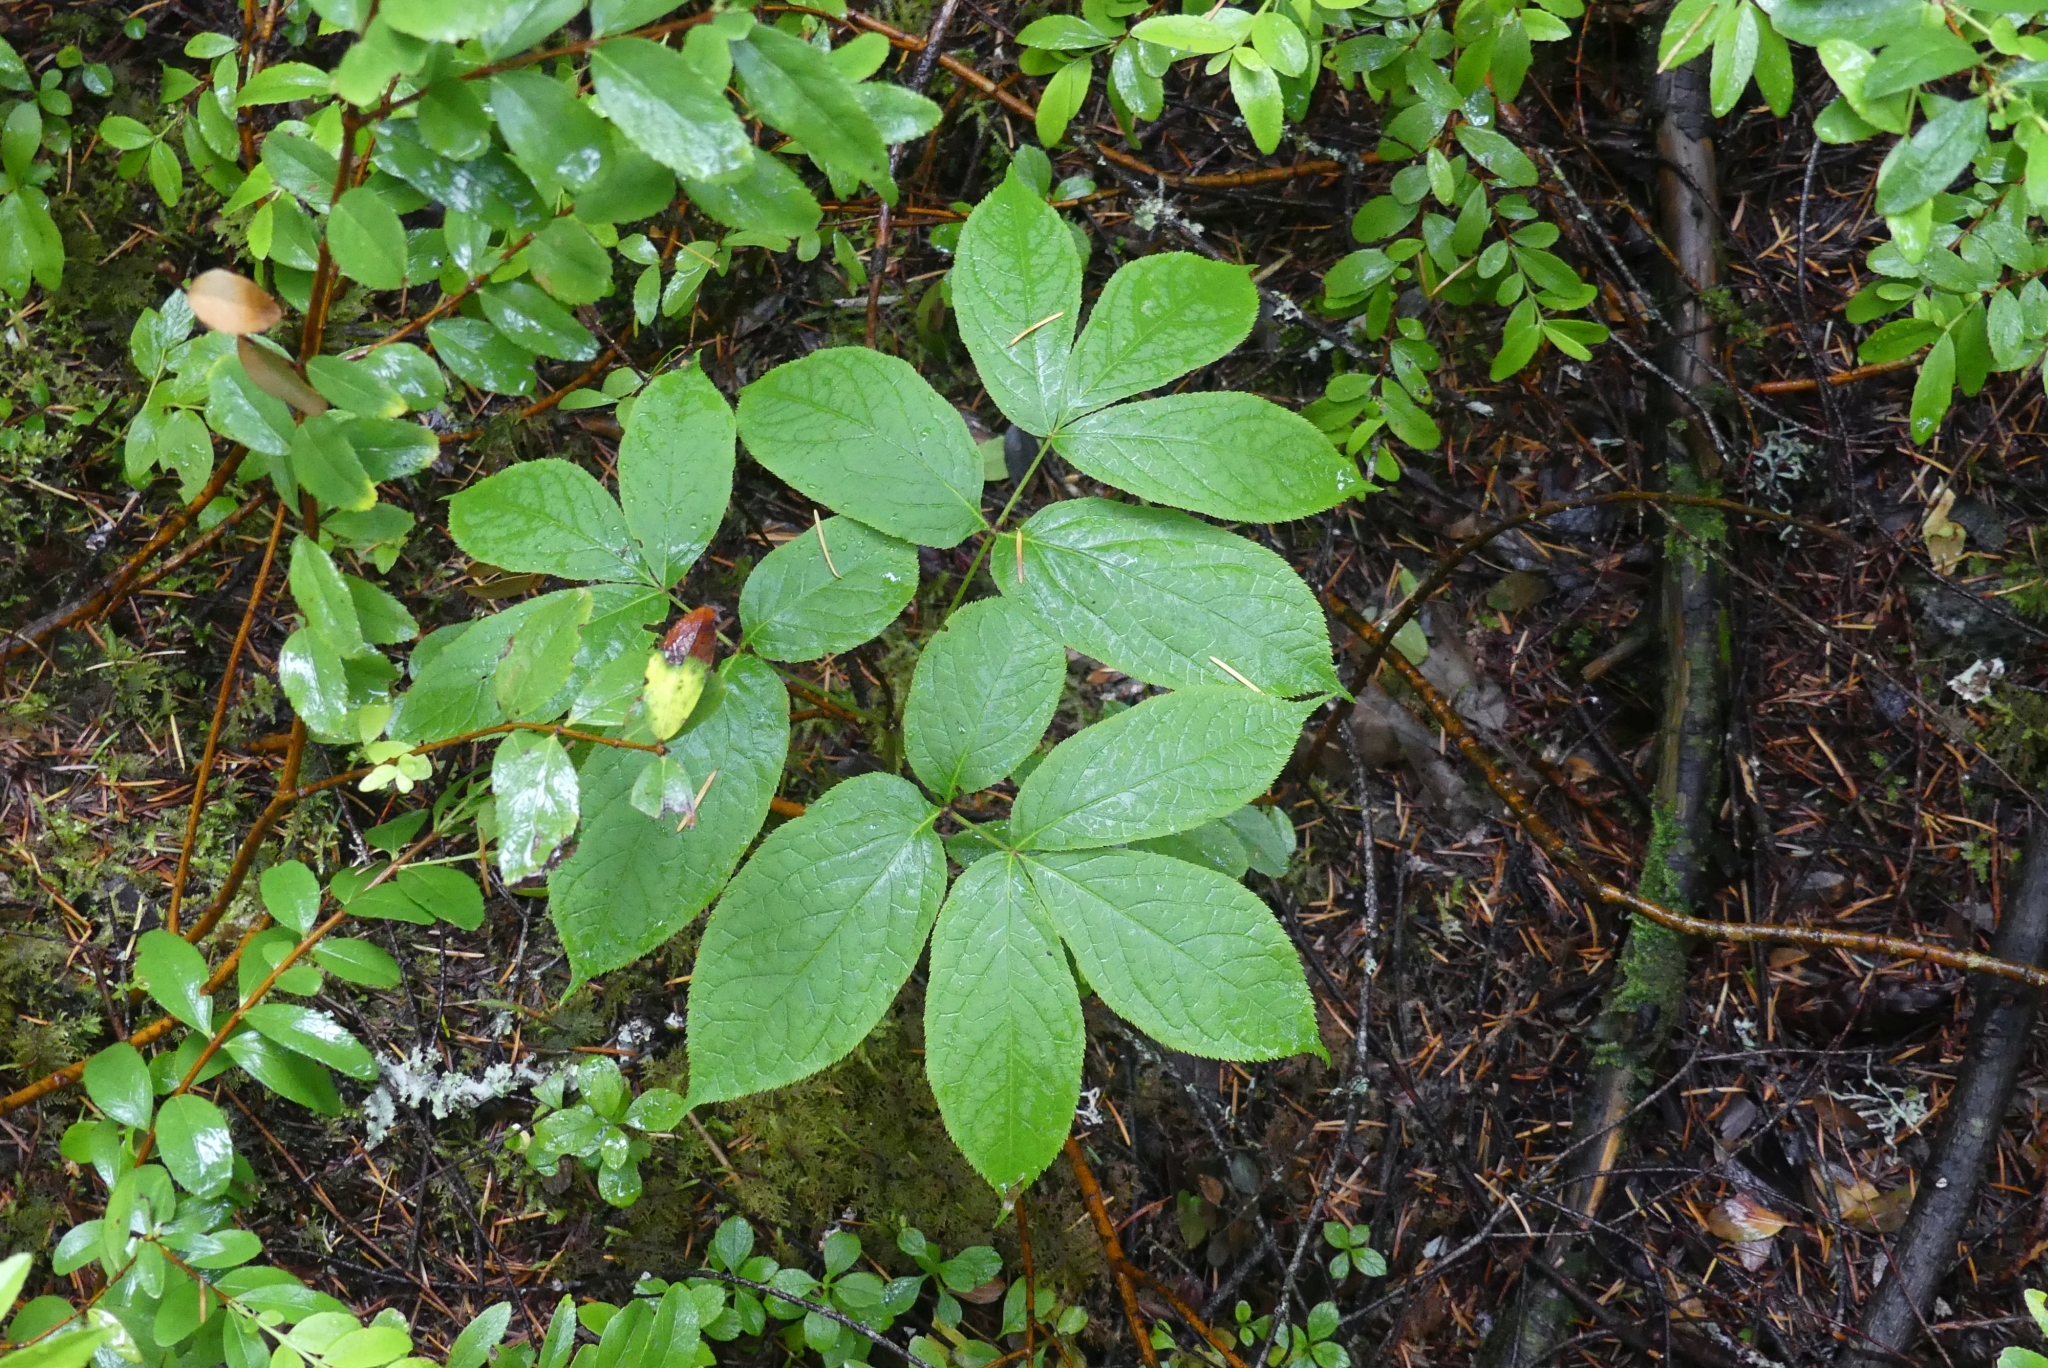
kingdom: Plantae
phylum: Tracheophyta
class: Magnoliopsida
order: Apiales
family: Araliaceae
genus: Aralia
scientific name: Aralia nudicaulis
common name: Wild sarsaparilla
